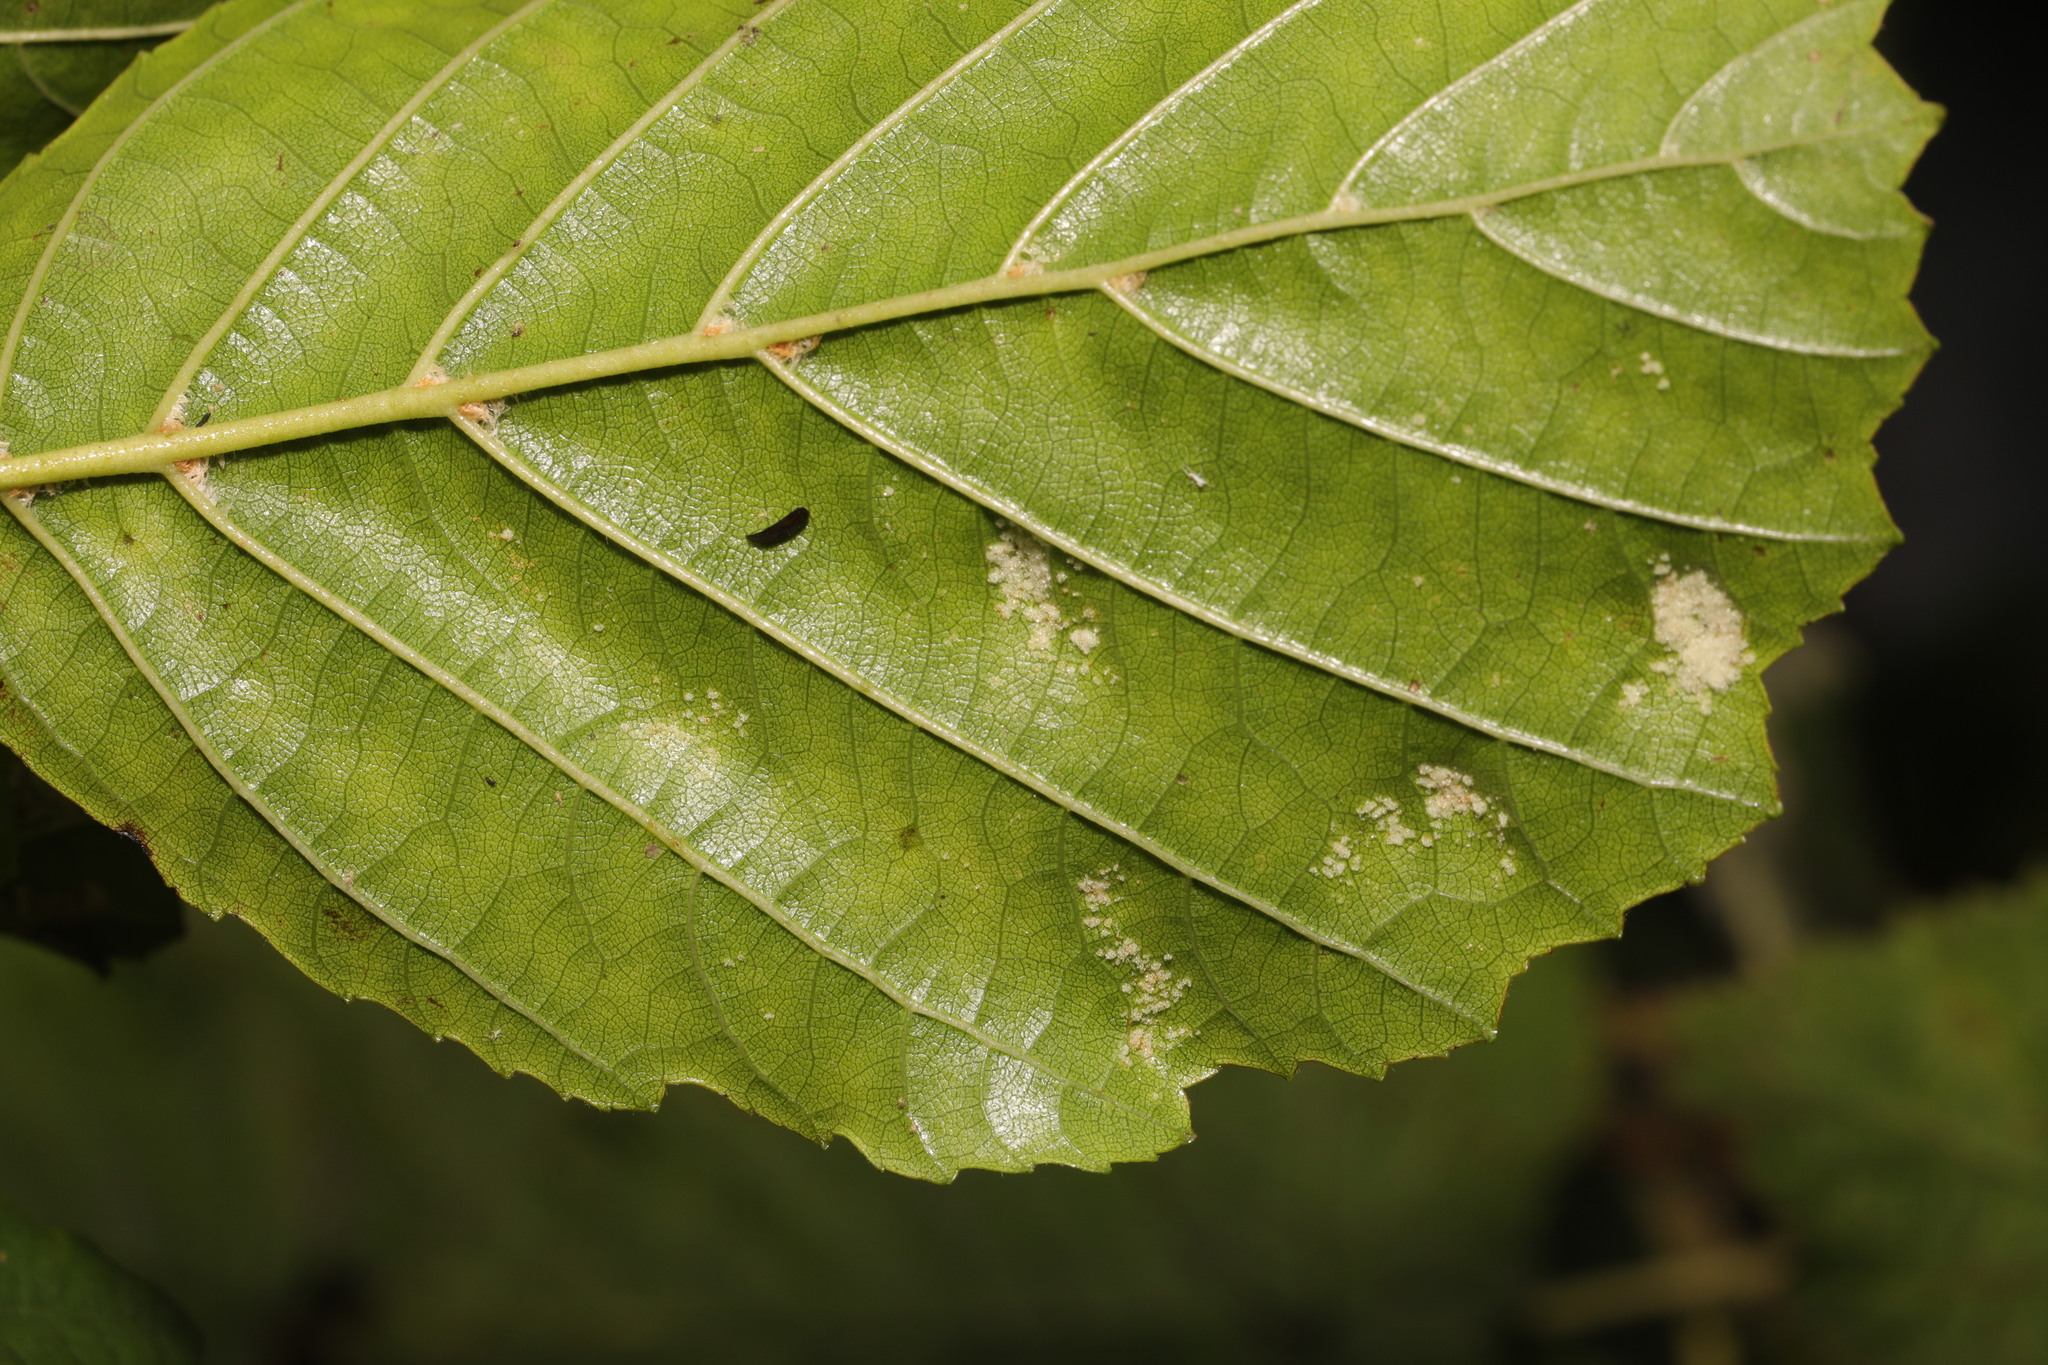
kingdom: Animalia
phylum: Arthropoda
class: Arachnida
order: Trombidiformes
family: Eriophyidae
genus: Acalitus
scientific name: Acalitus brevitarsus
